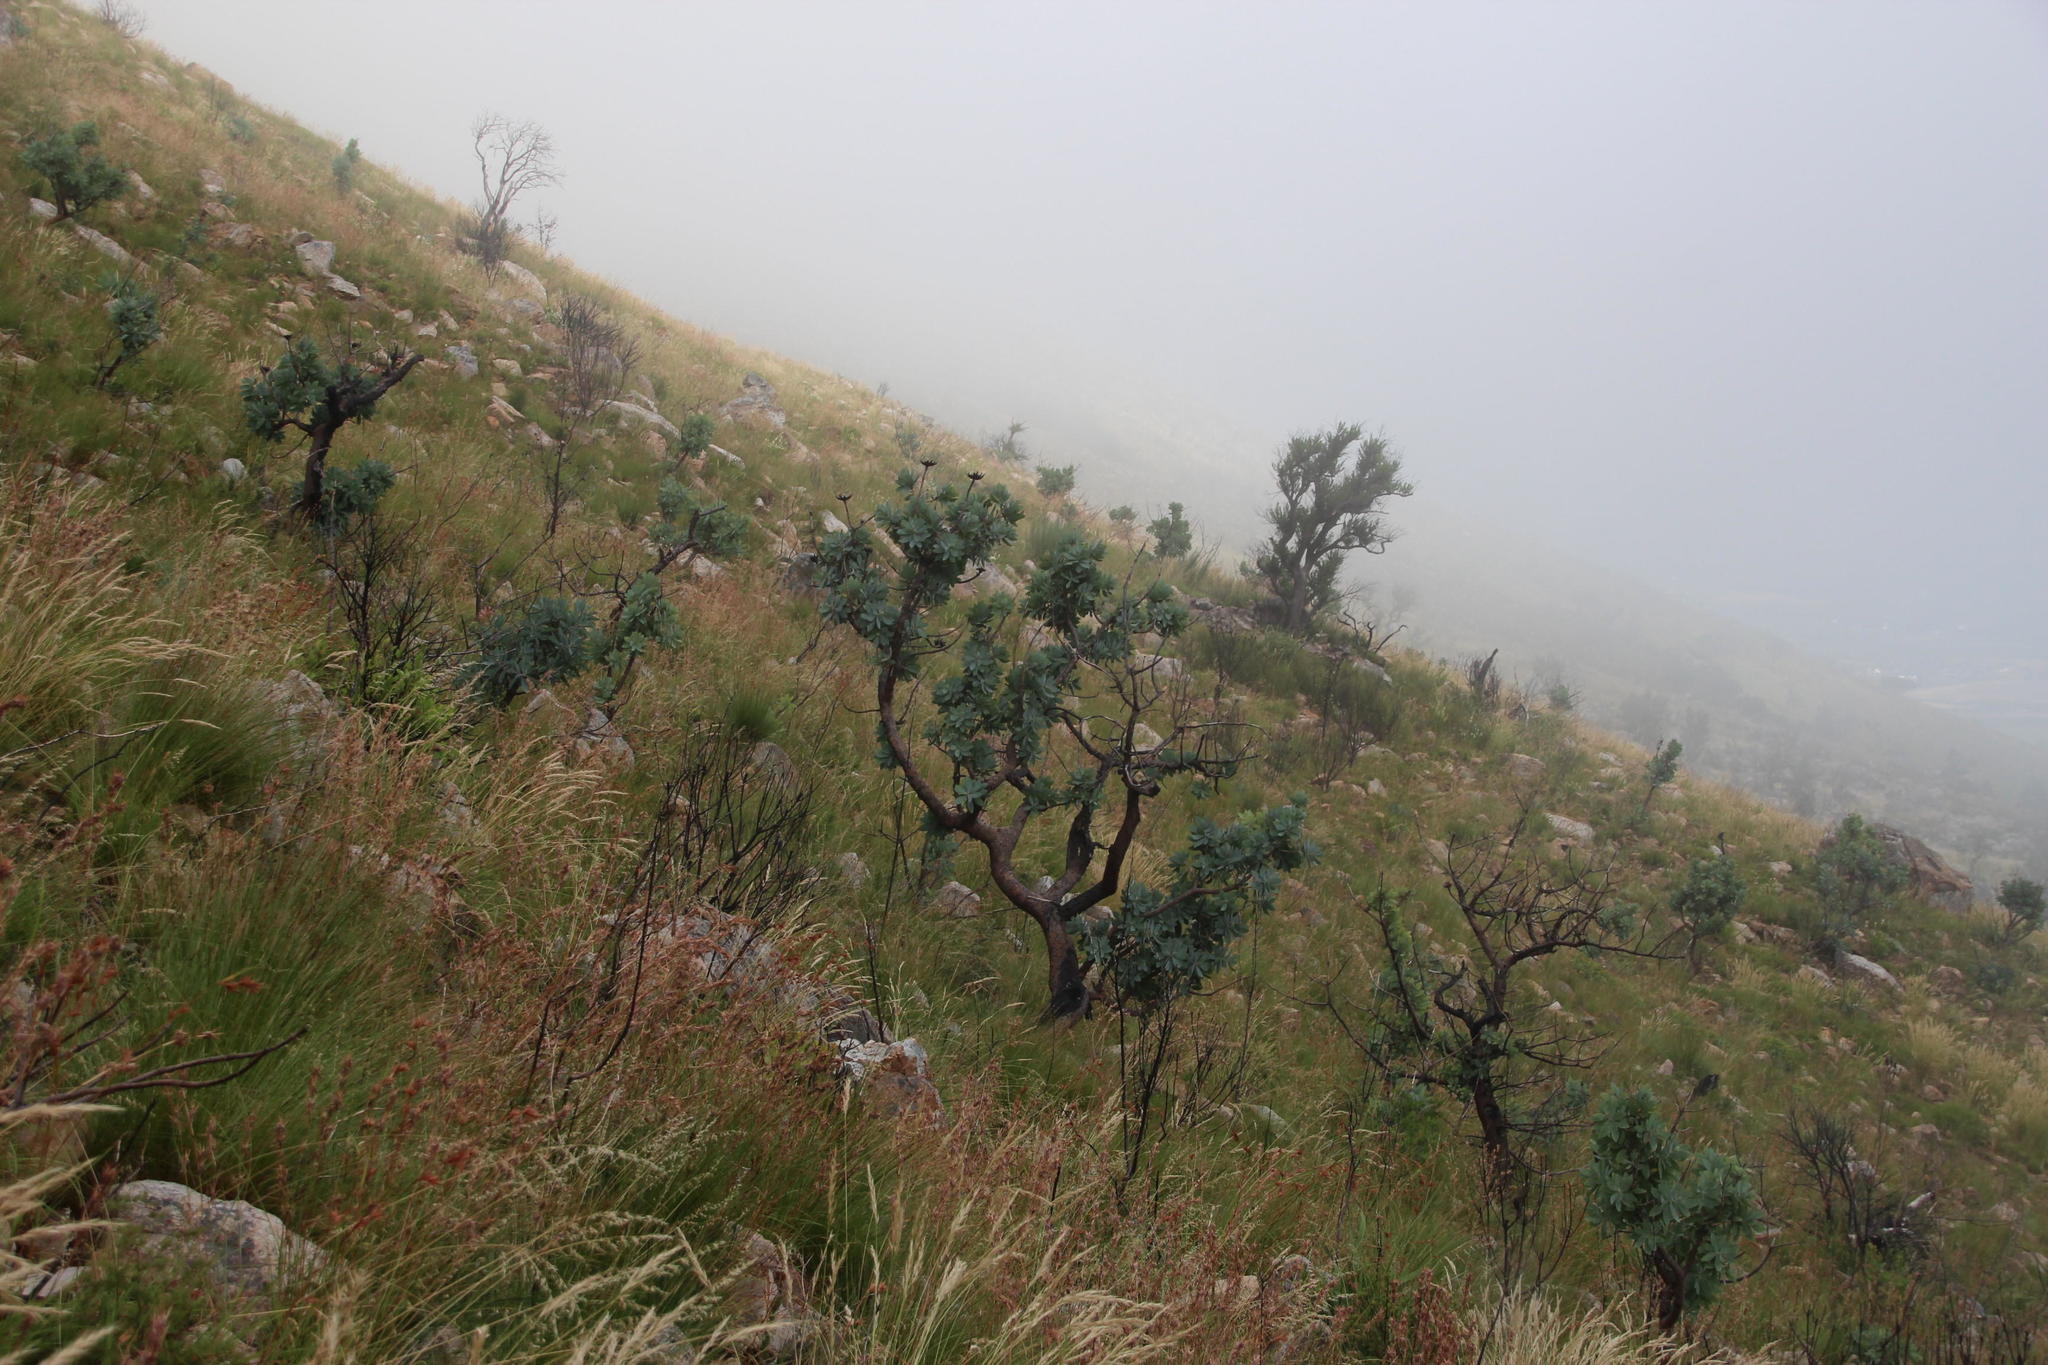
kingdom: Plantae
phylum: Tracheophyta
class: Magnoliopsida
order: Proteales
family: Proteaceae
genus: Protea
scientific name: Protea nitida
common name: Tree protea
